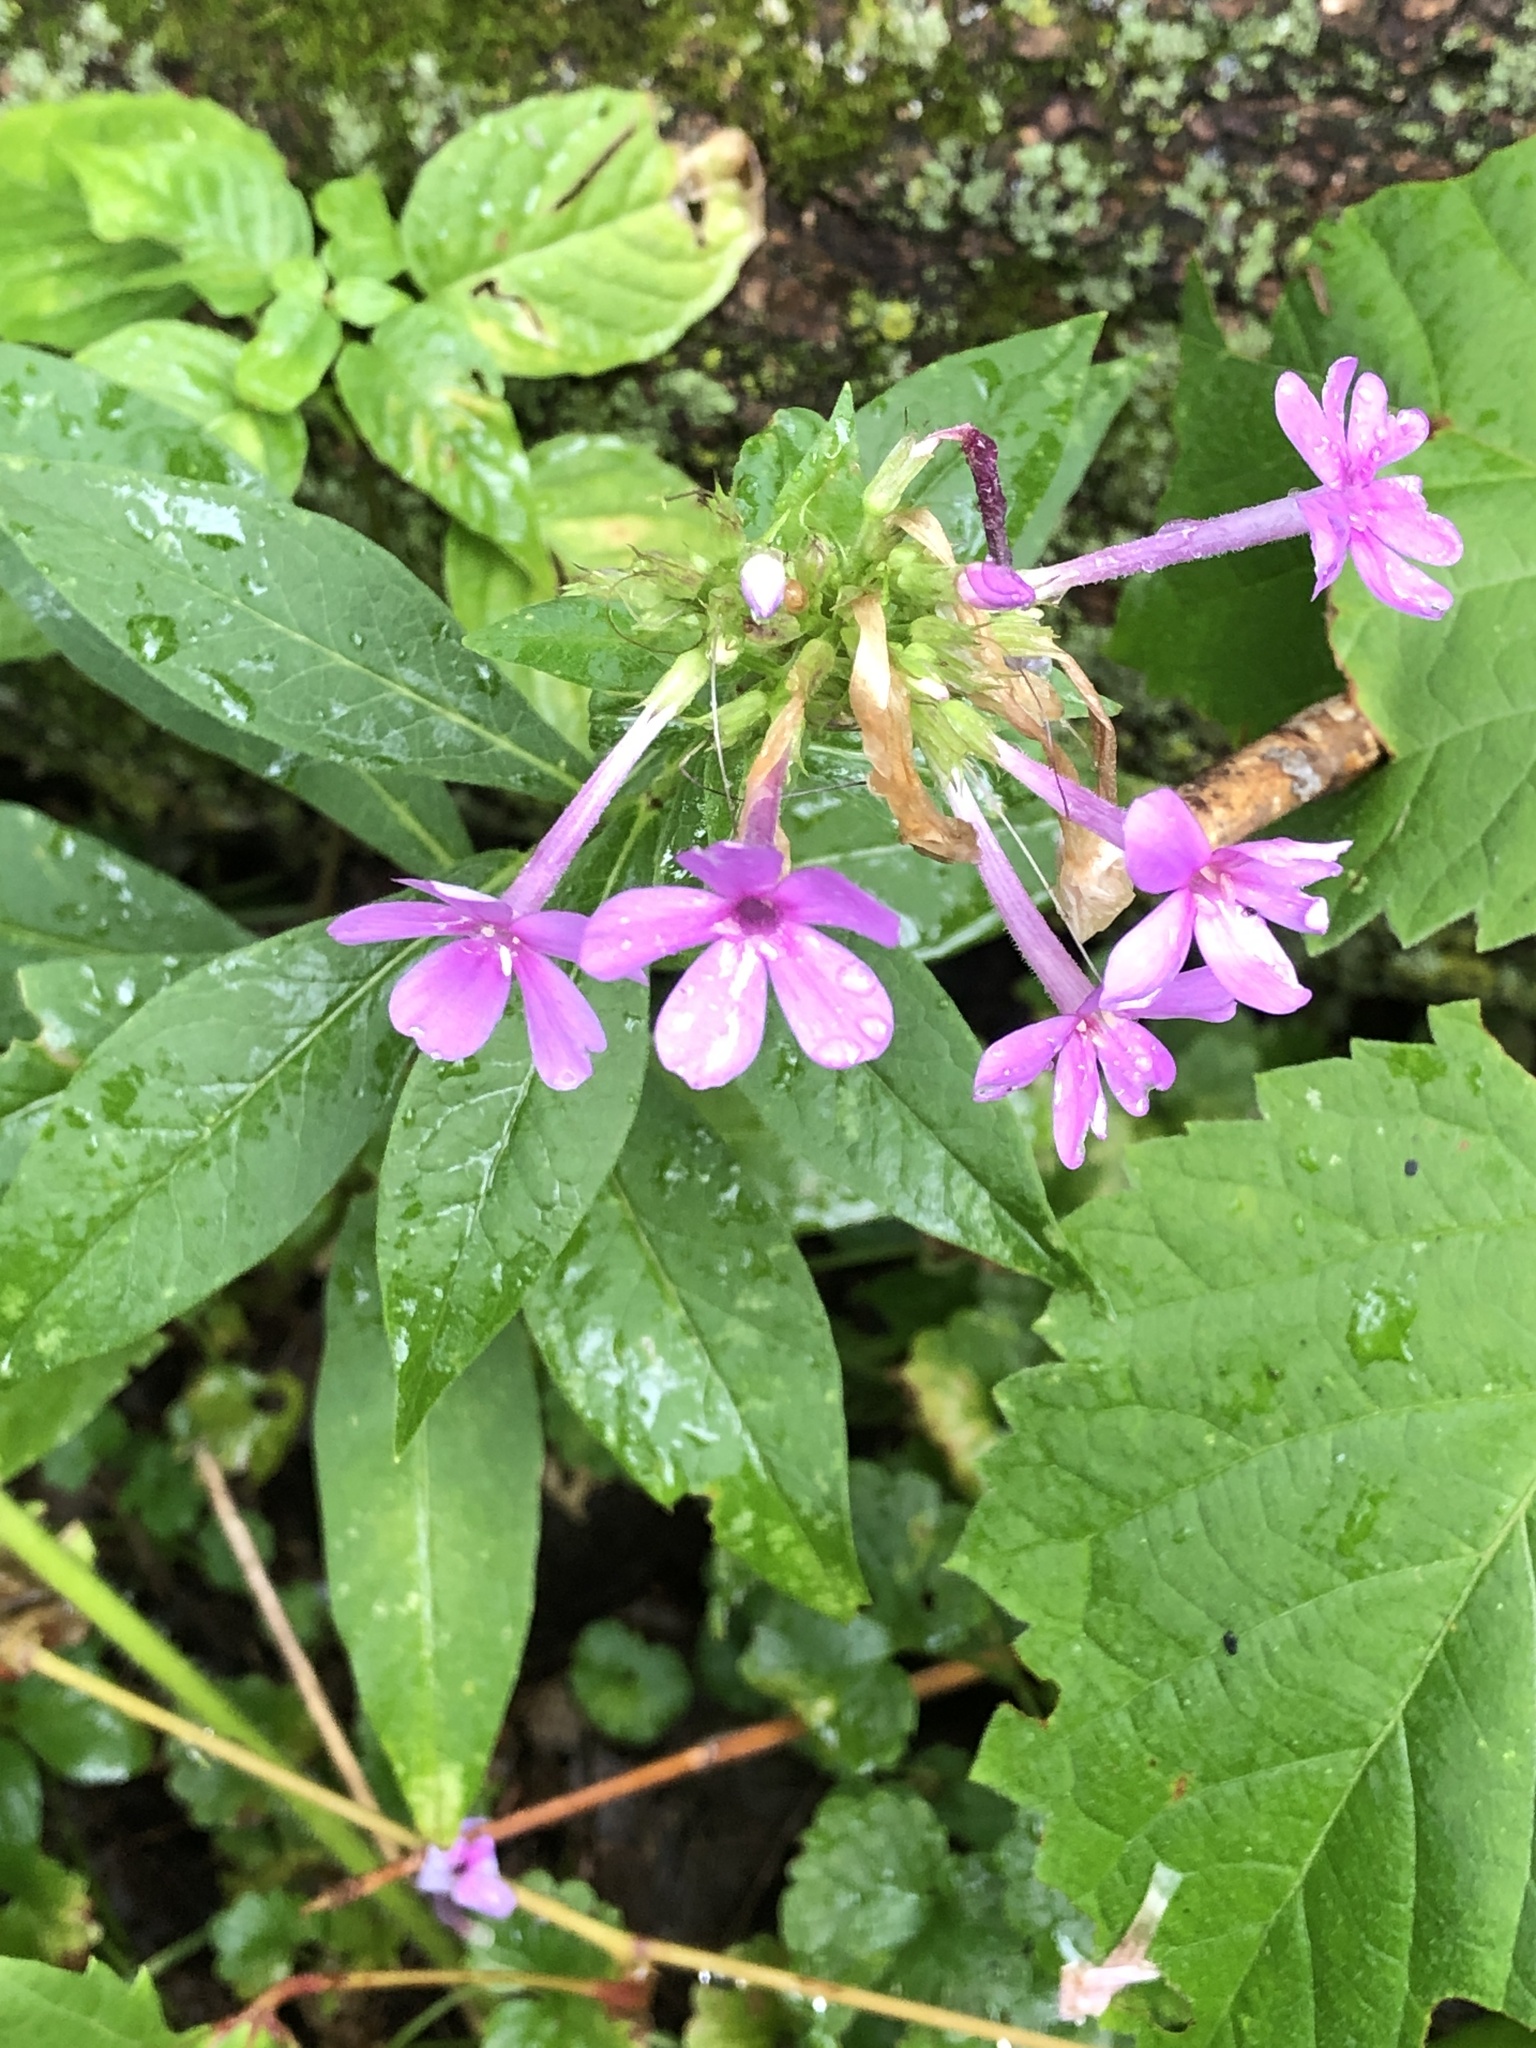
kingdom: Plantae
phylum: Tracheophyta
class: Magnoliopsida
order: Ericales
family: Polemoniaceae
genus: Phlox
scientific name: Phlox paniculata
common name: Fall phlox
